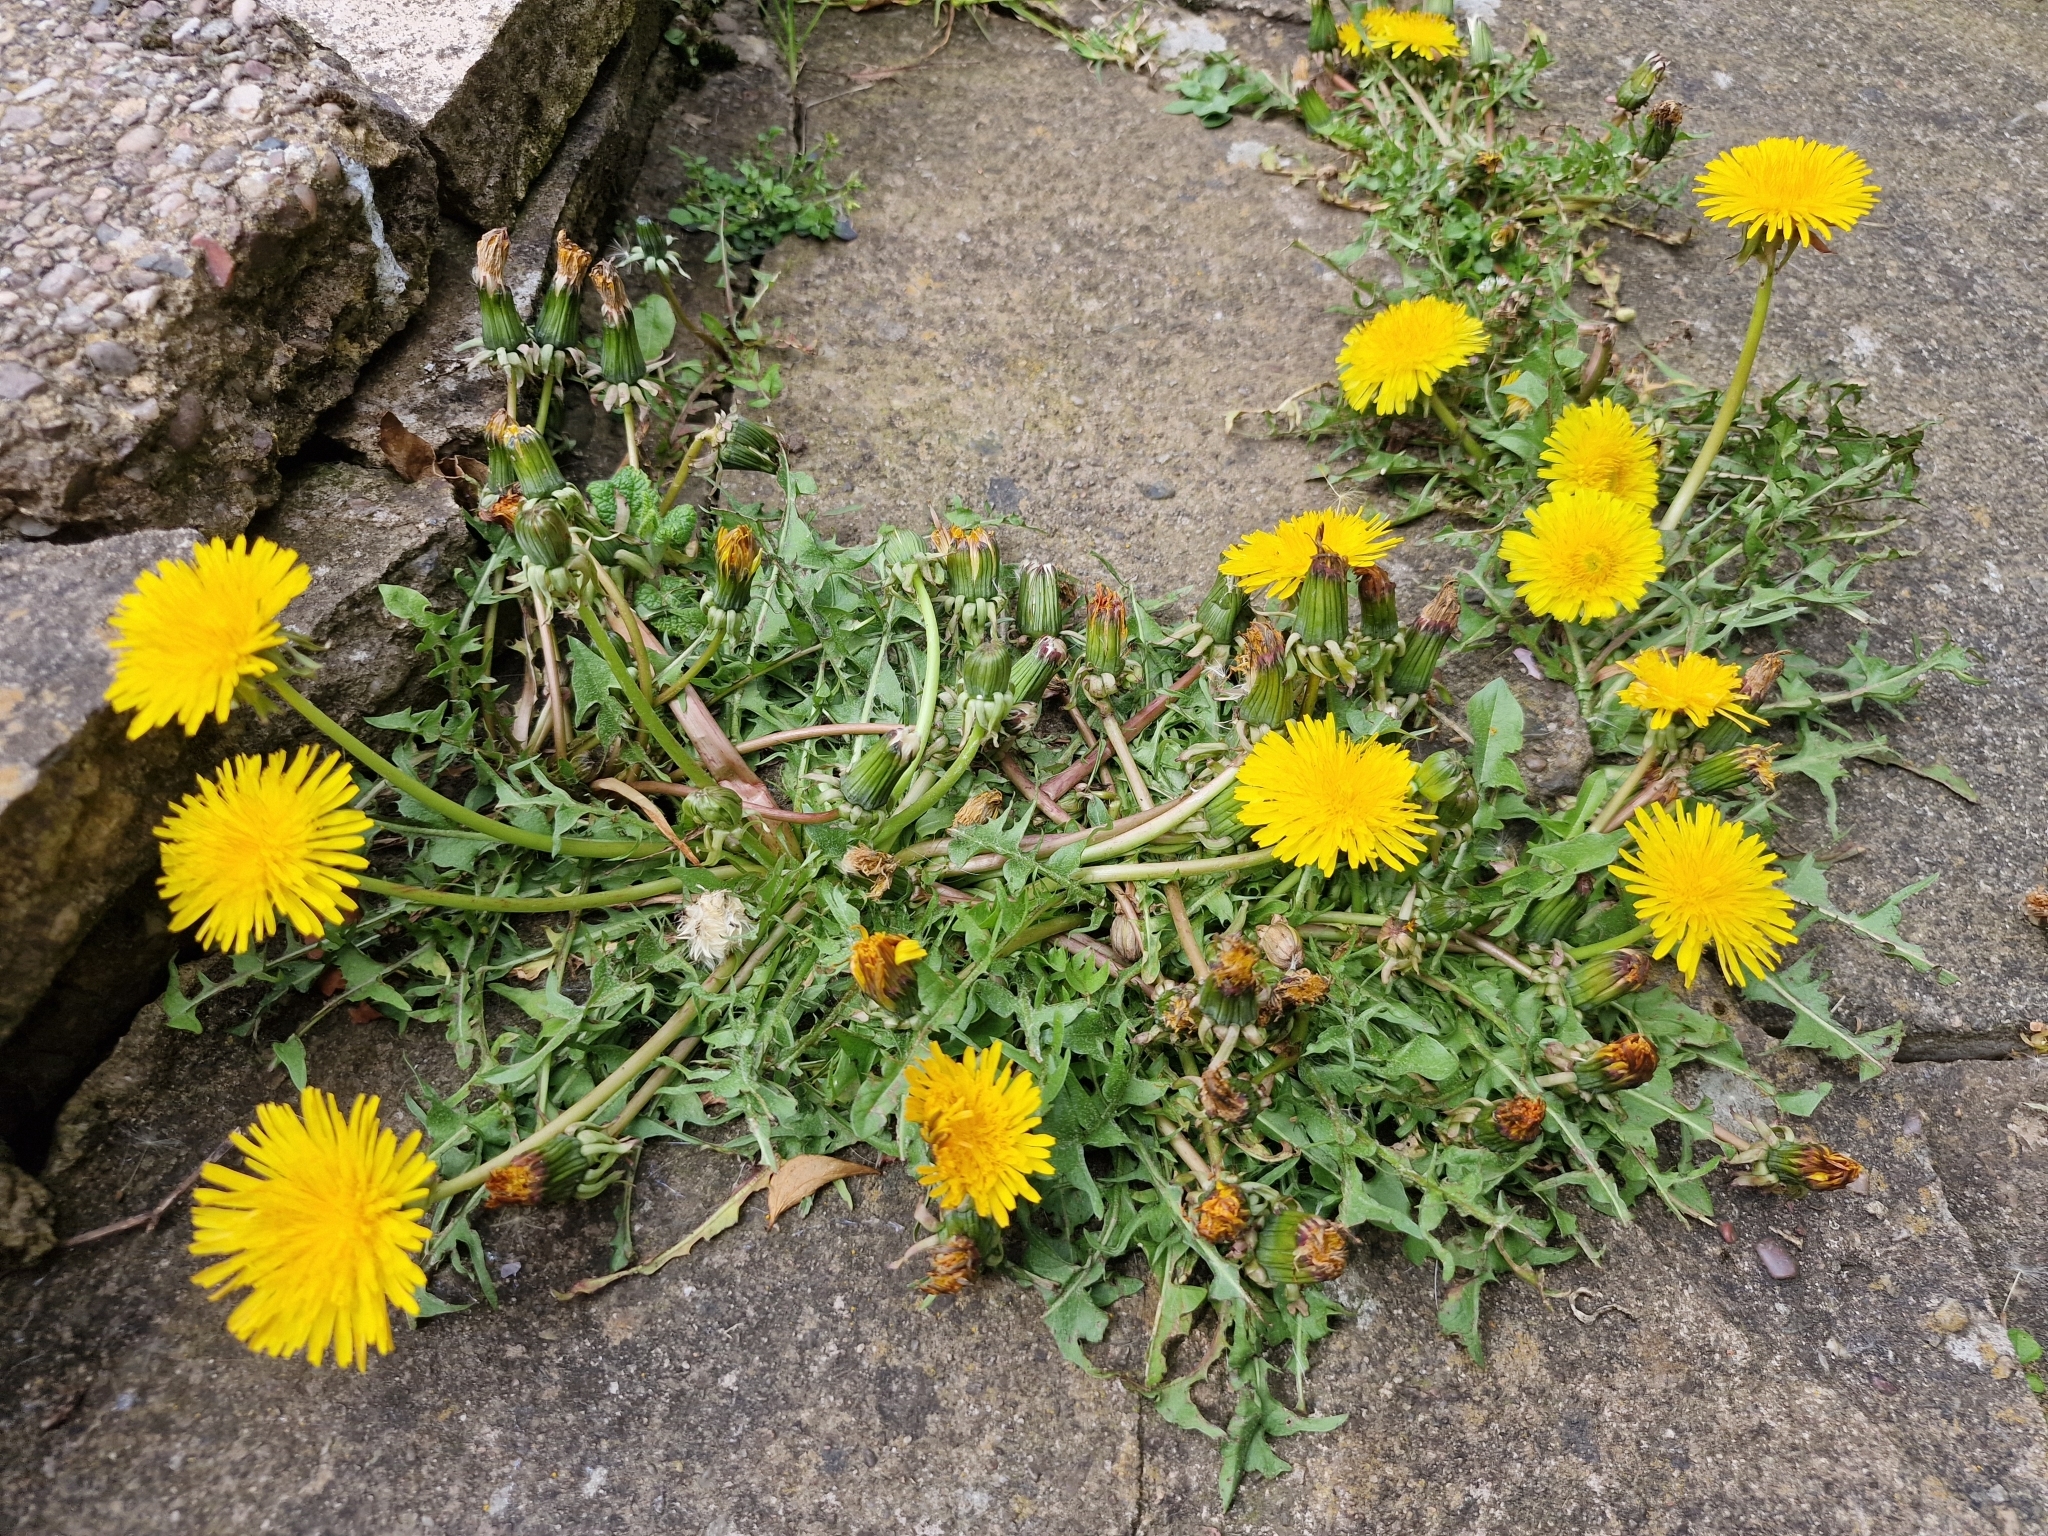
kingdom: Plantae
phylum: Tracheophyta
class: Magnoliopsida
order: Asterales
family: Asteraceae
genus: Taraxacum
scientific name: Taraxacum officinale
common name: Common dandelion
